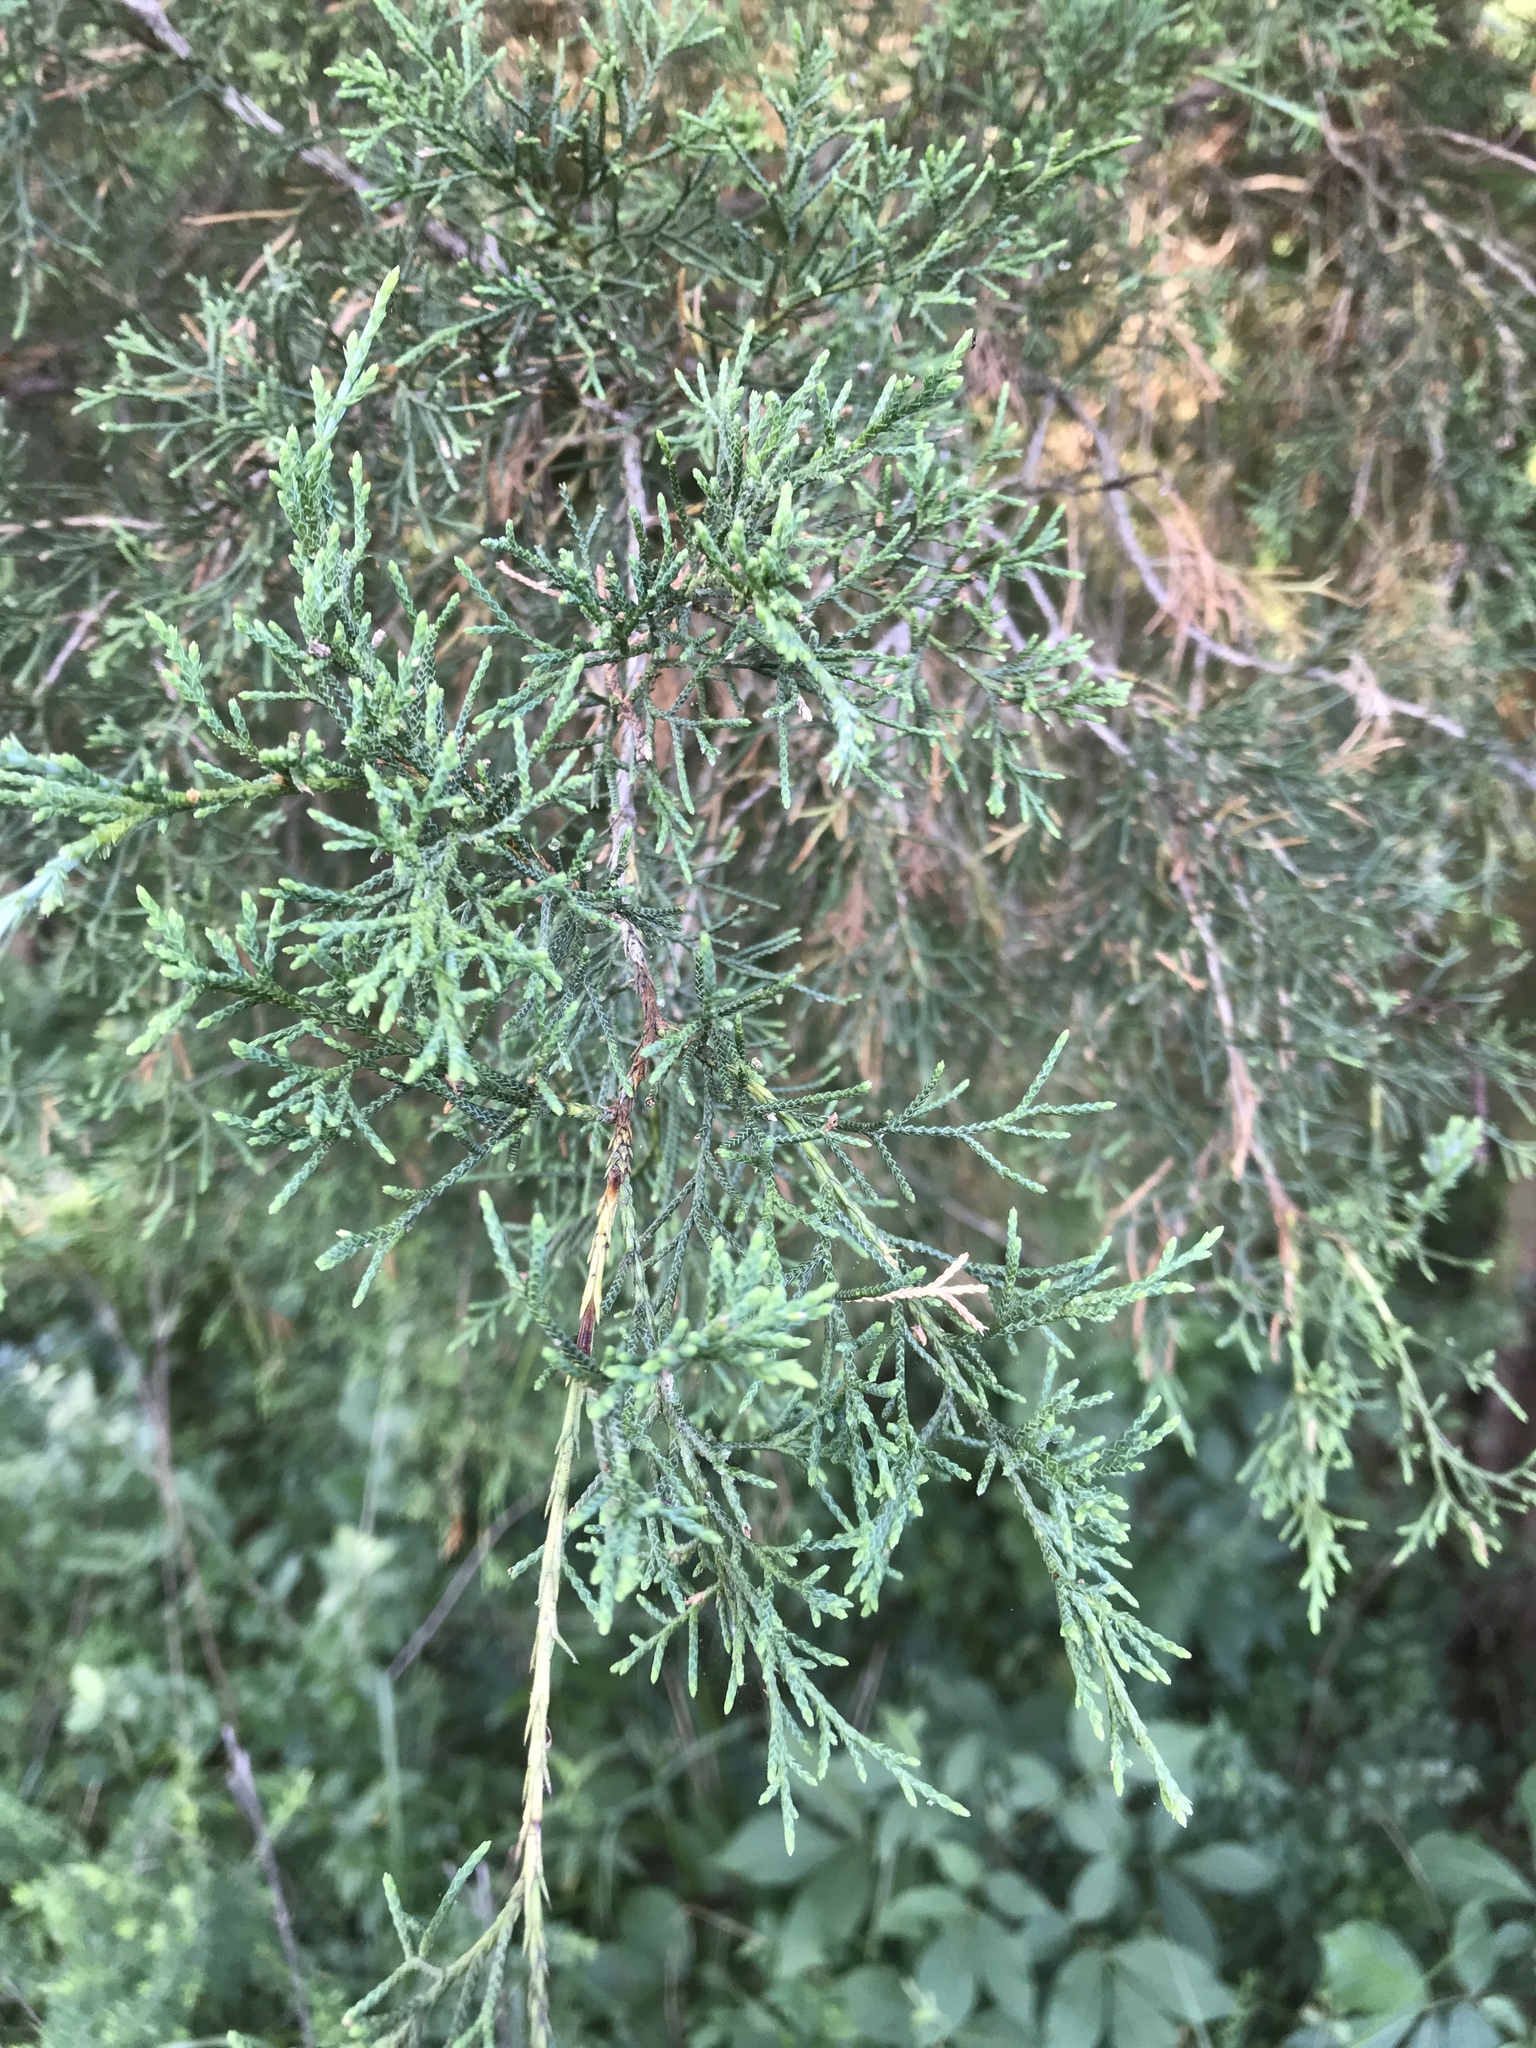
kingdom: Plantae
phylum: Tracheophyta
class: Pinopsida
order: Pinales
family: Cupressaceae
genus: Juniperus
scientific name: Juniperus virginiana
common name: Red juniper
